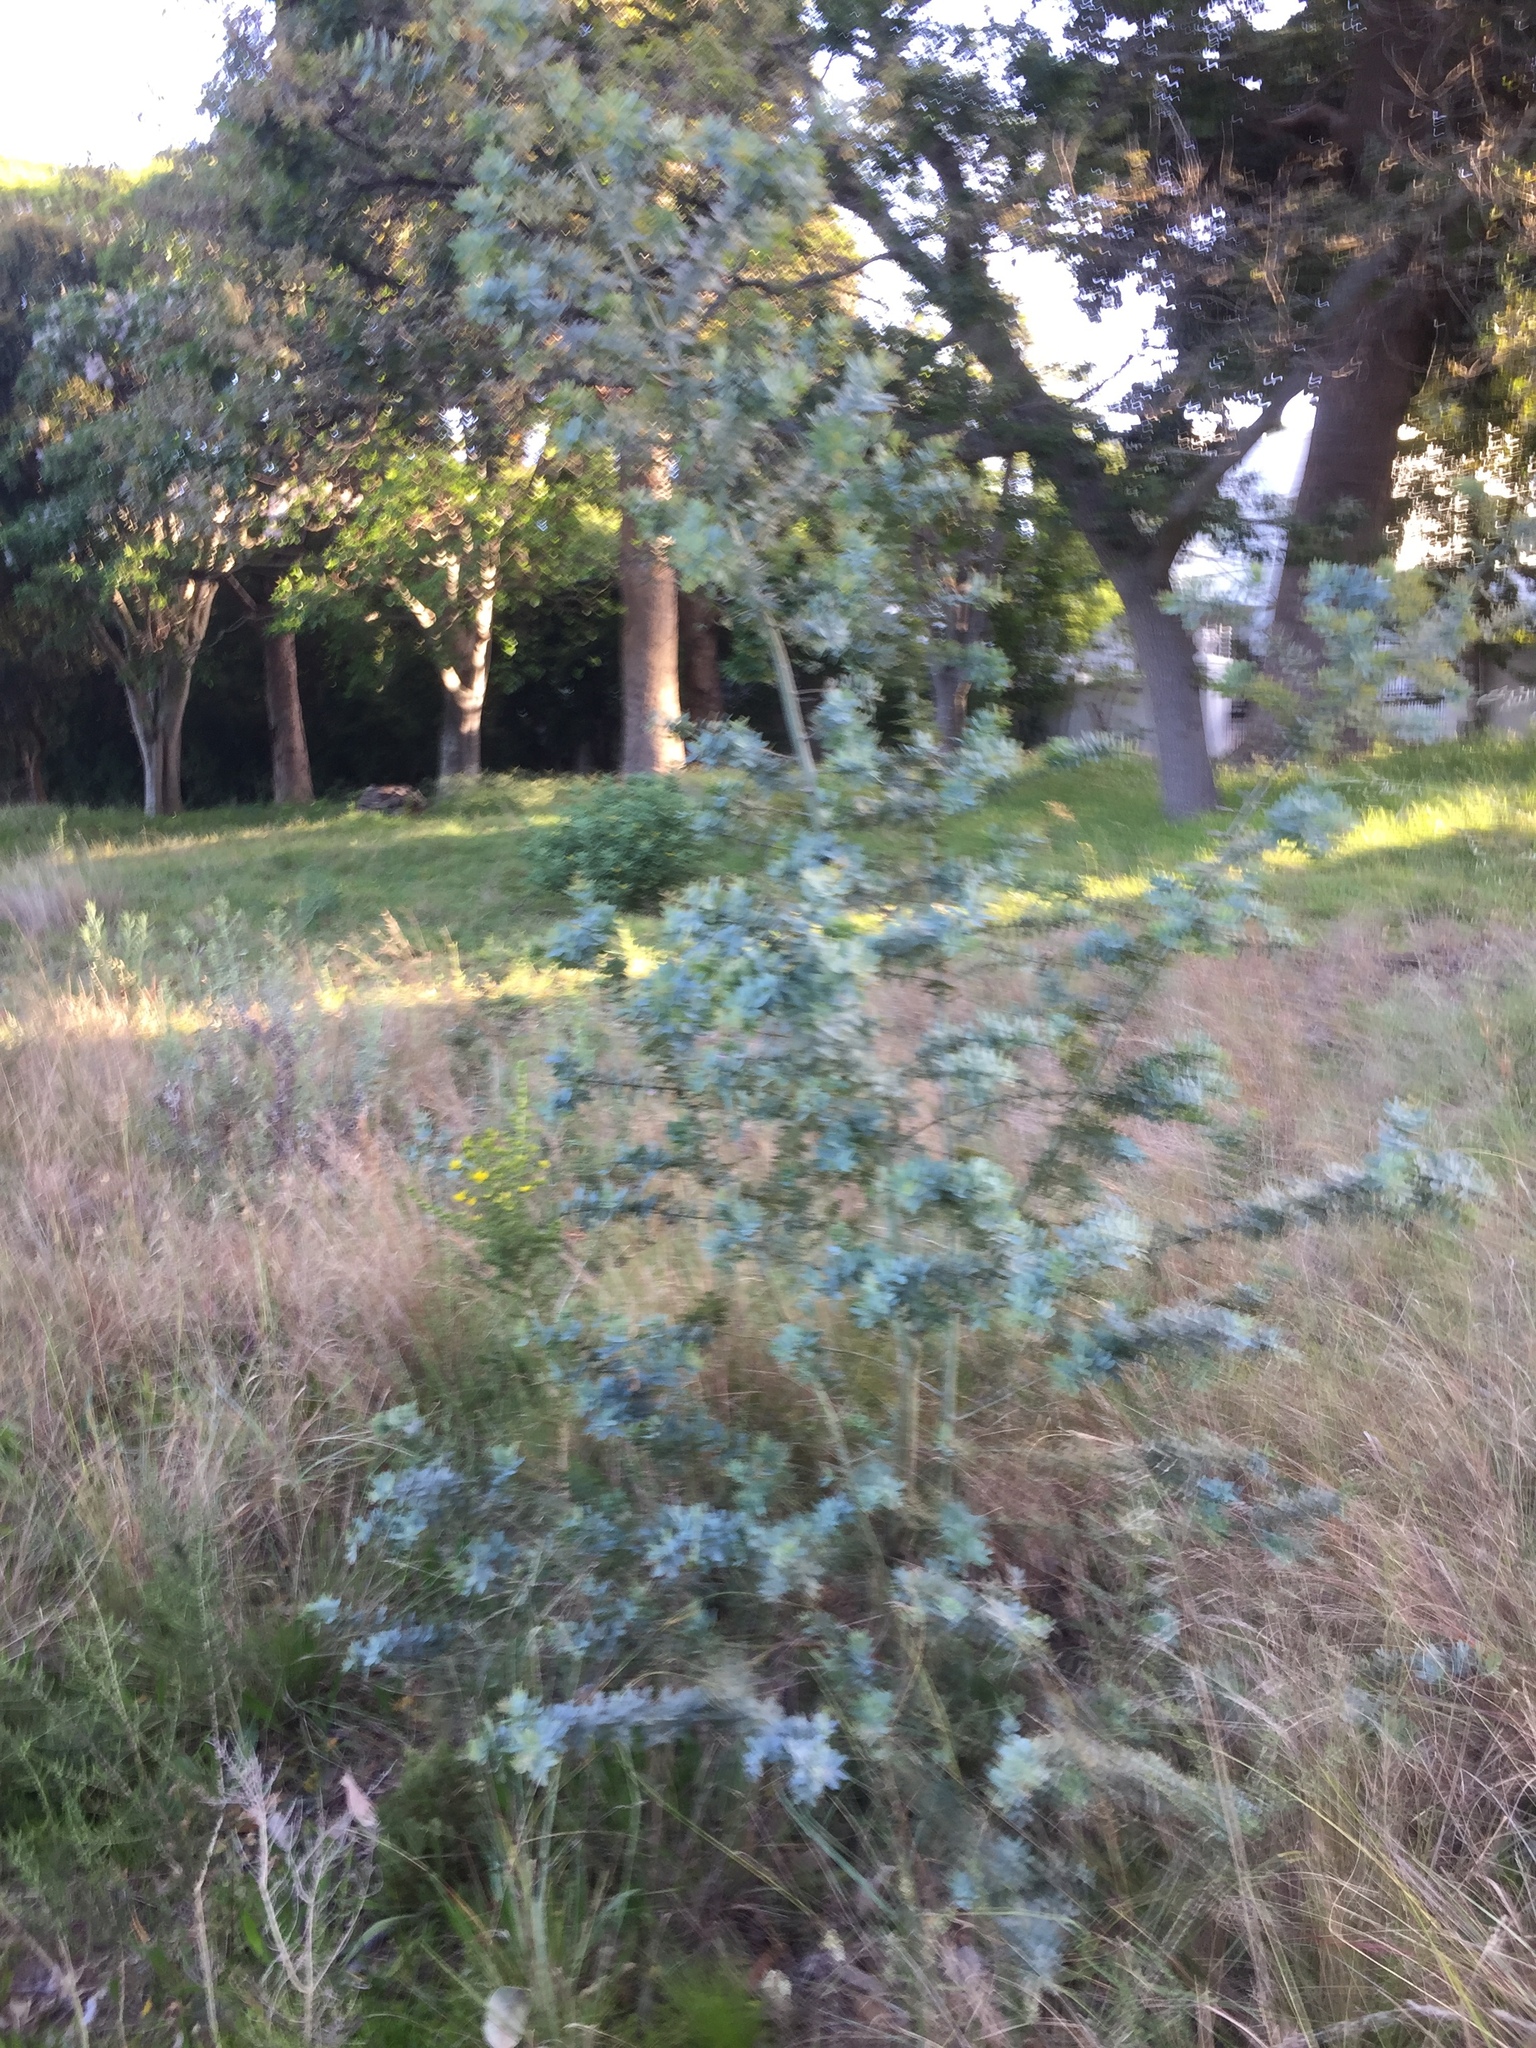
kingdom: Plantae
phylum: Tracheophyta
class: Magnoliopsida
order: Fabales
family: Fabaceae
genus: Acacia
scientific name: Acacia baileyana
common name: Cootamundra wattle
